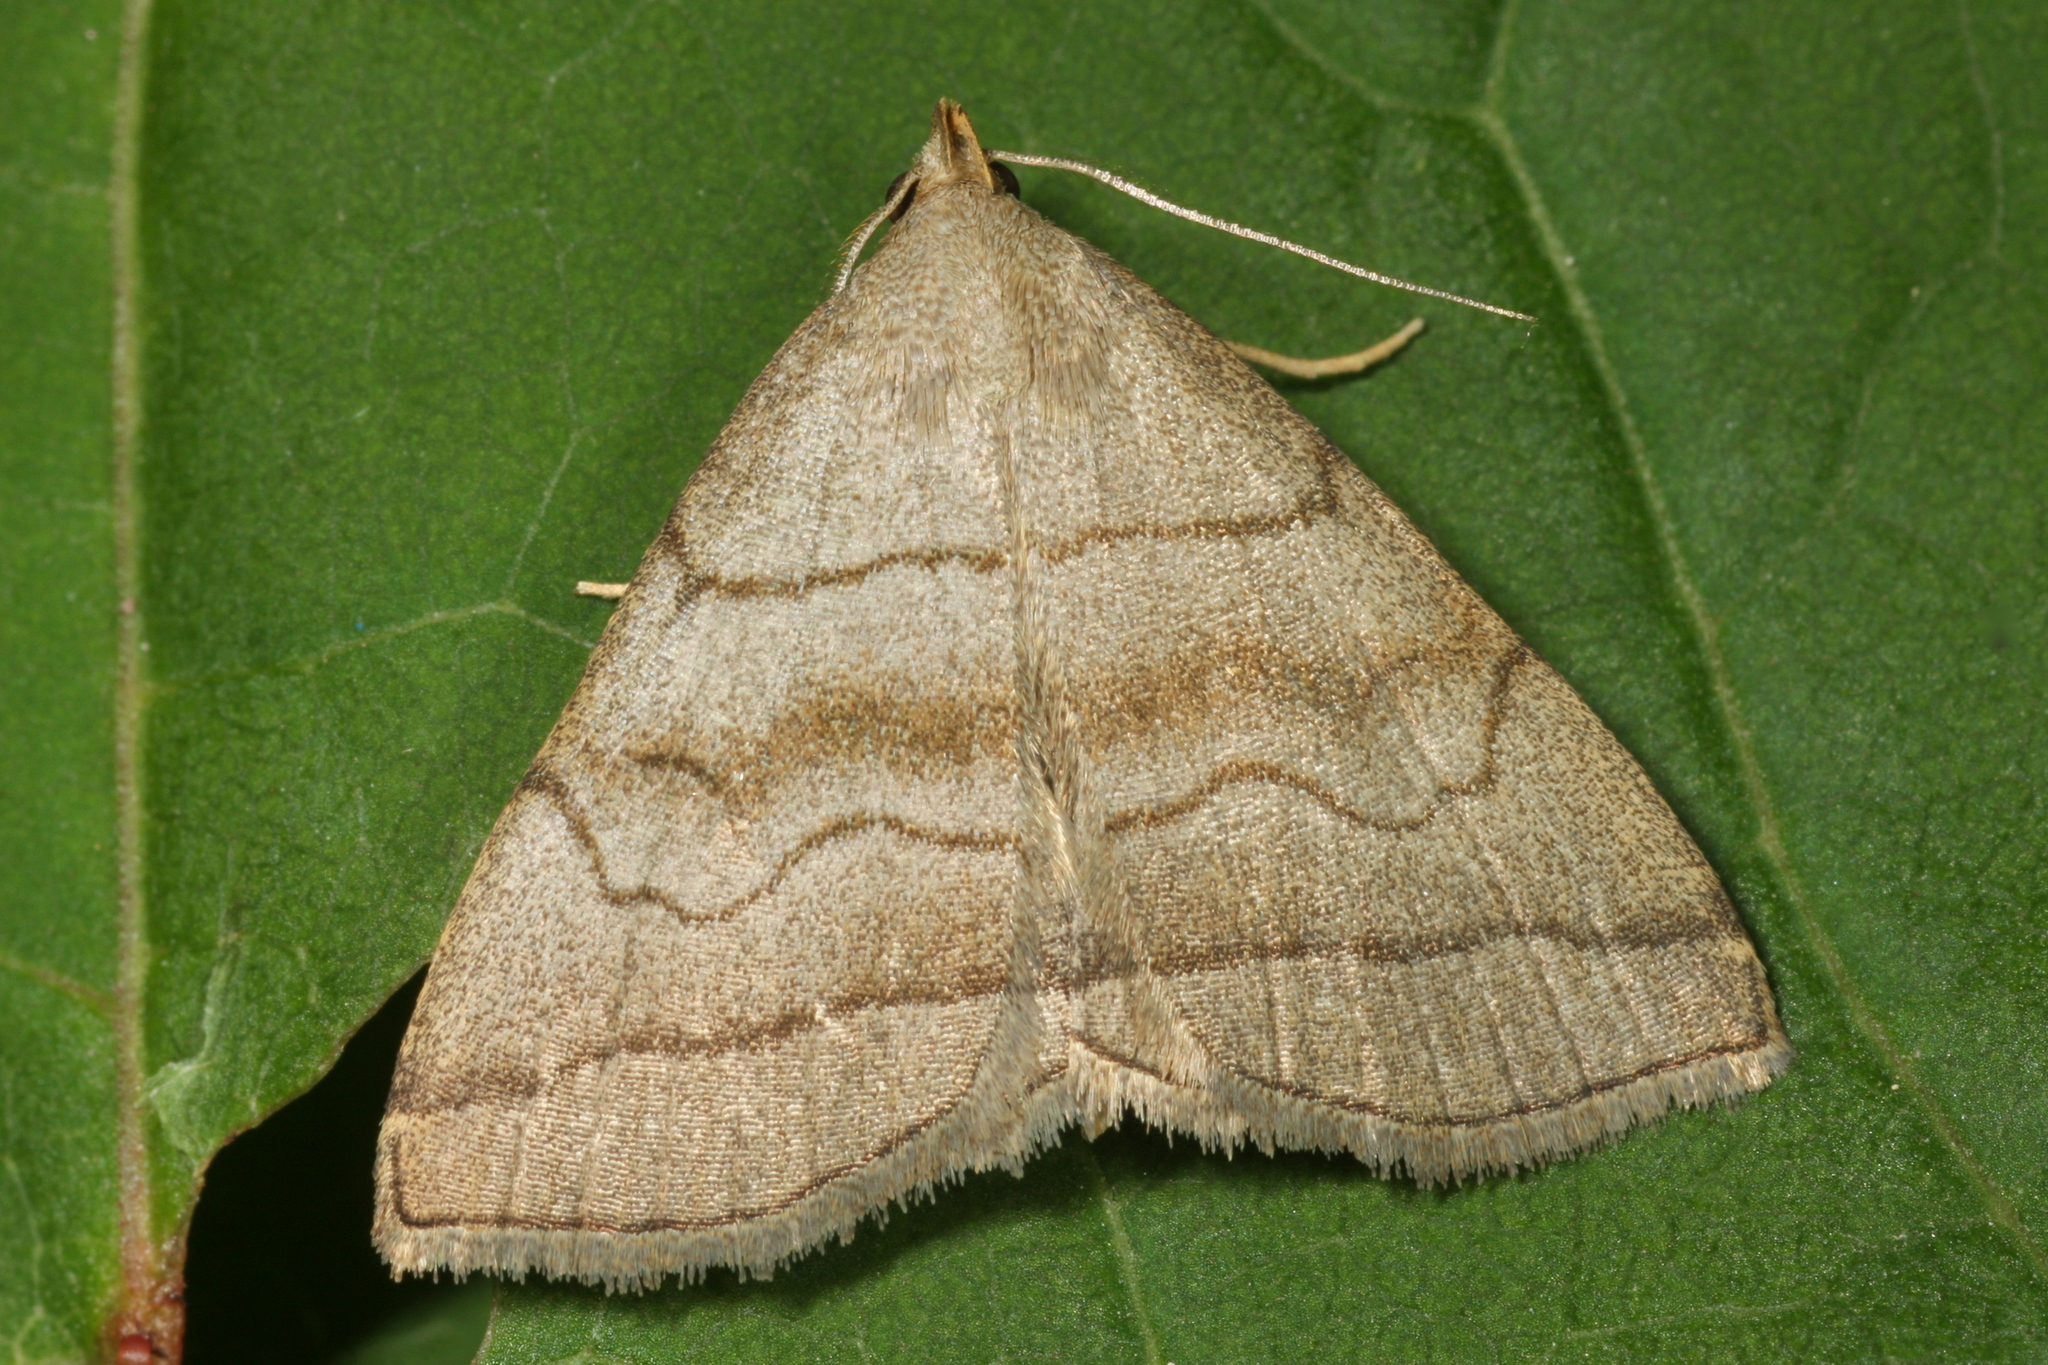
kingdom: Animalia
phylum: Arthropoda
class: Insecta
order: Lepidoptera
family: Erebidae
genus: Herminia
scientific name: Herminia tarsicrinalis
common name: Shaded fan-foot
